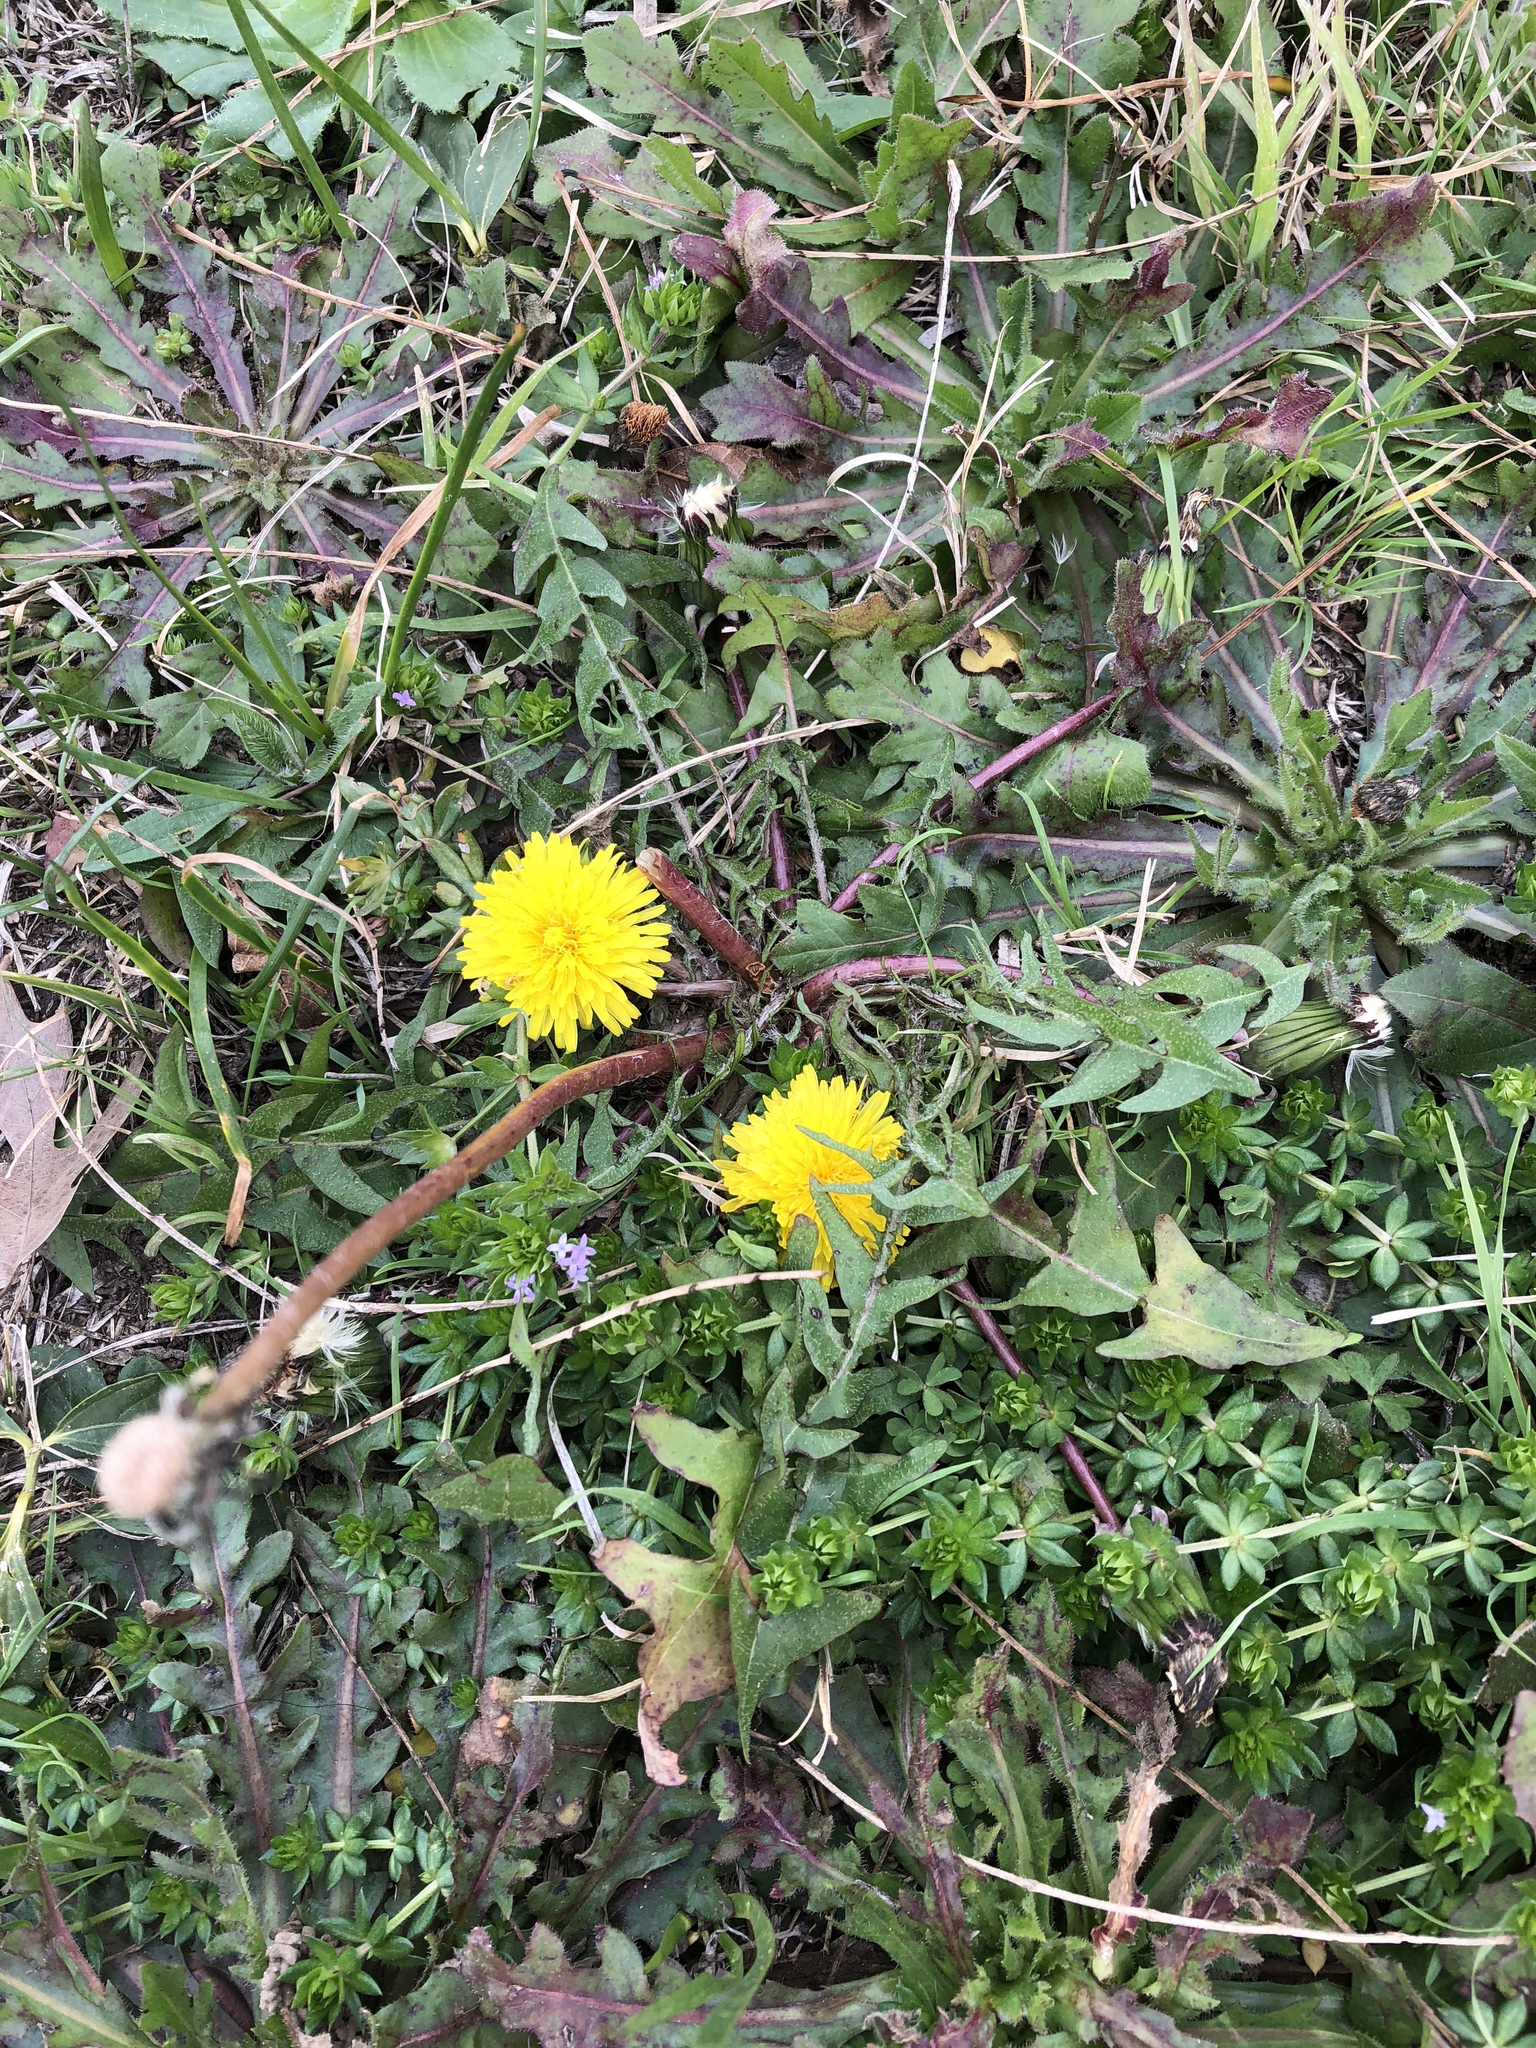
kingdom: Plantae
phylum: Tracheophyta
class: Magnoliopsida
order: Asterales
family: Asteraceae
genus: Taraxacum
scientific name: Taraxacum officinale
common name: Common dandelion
